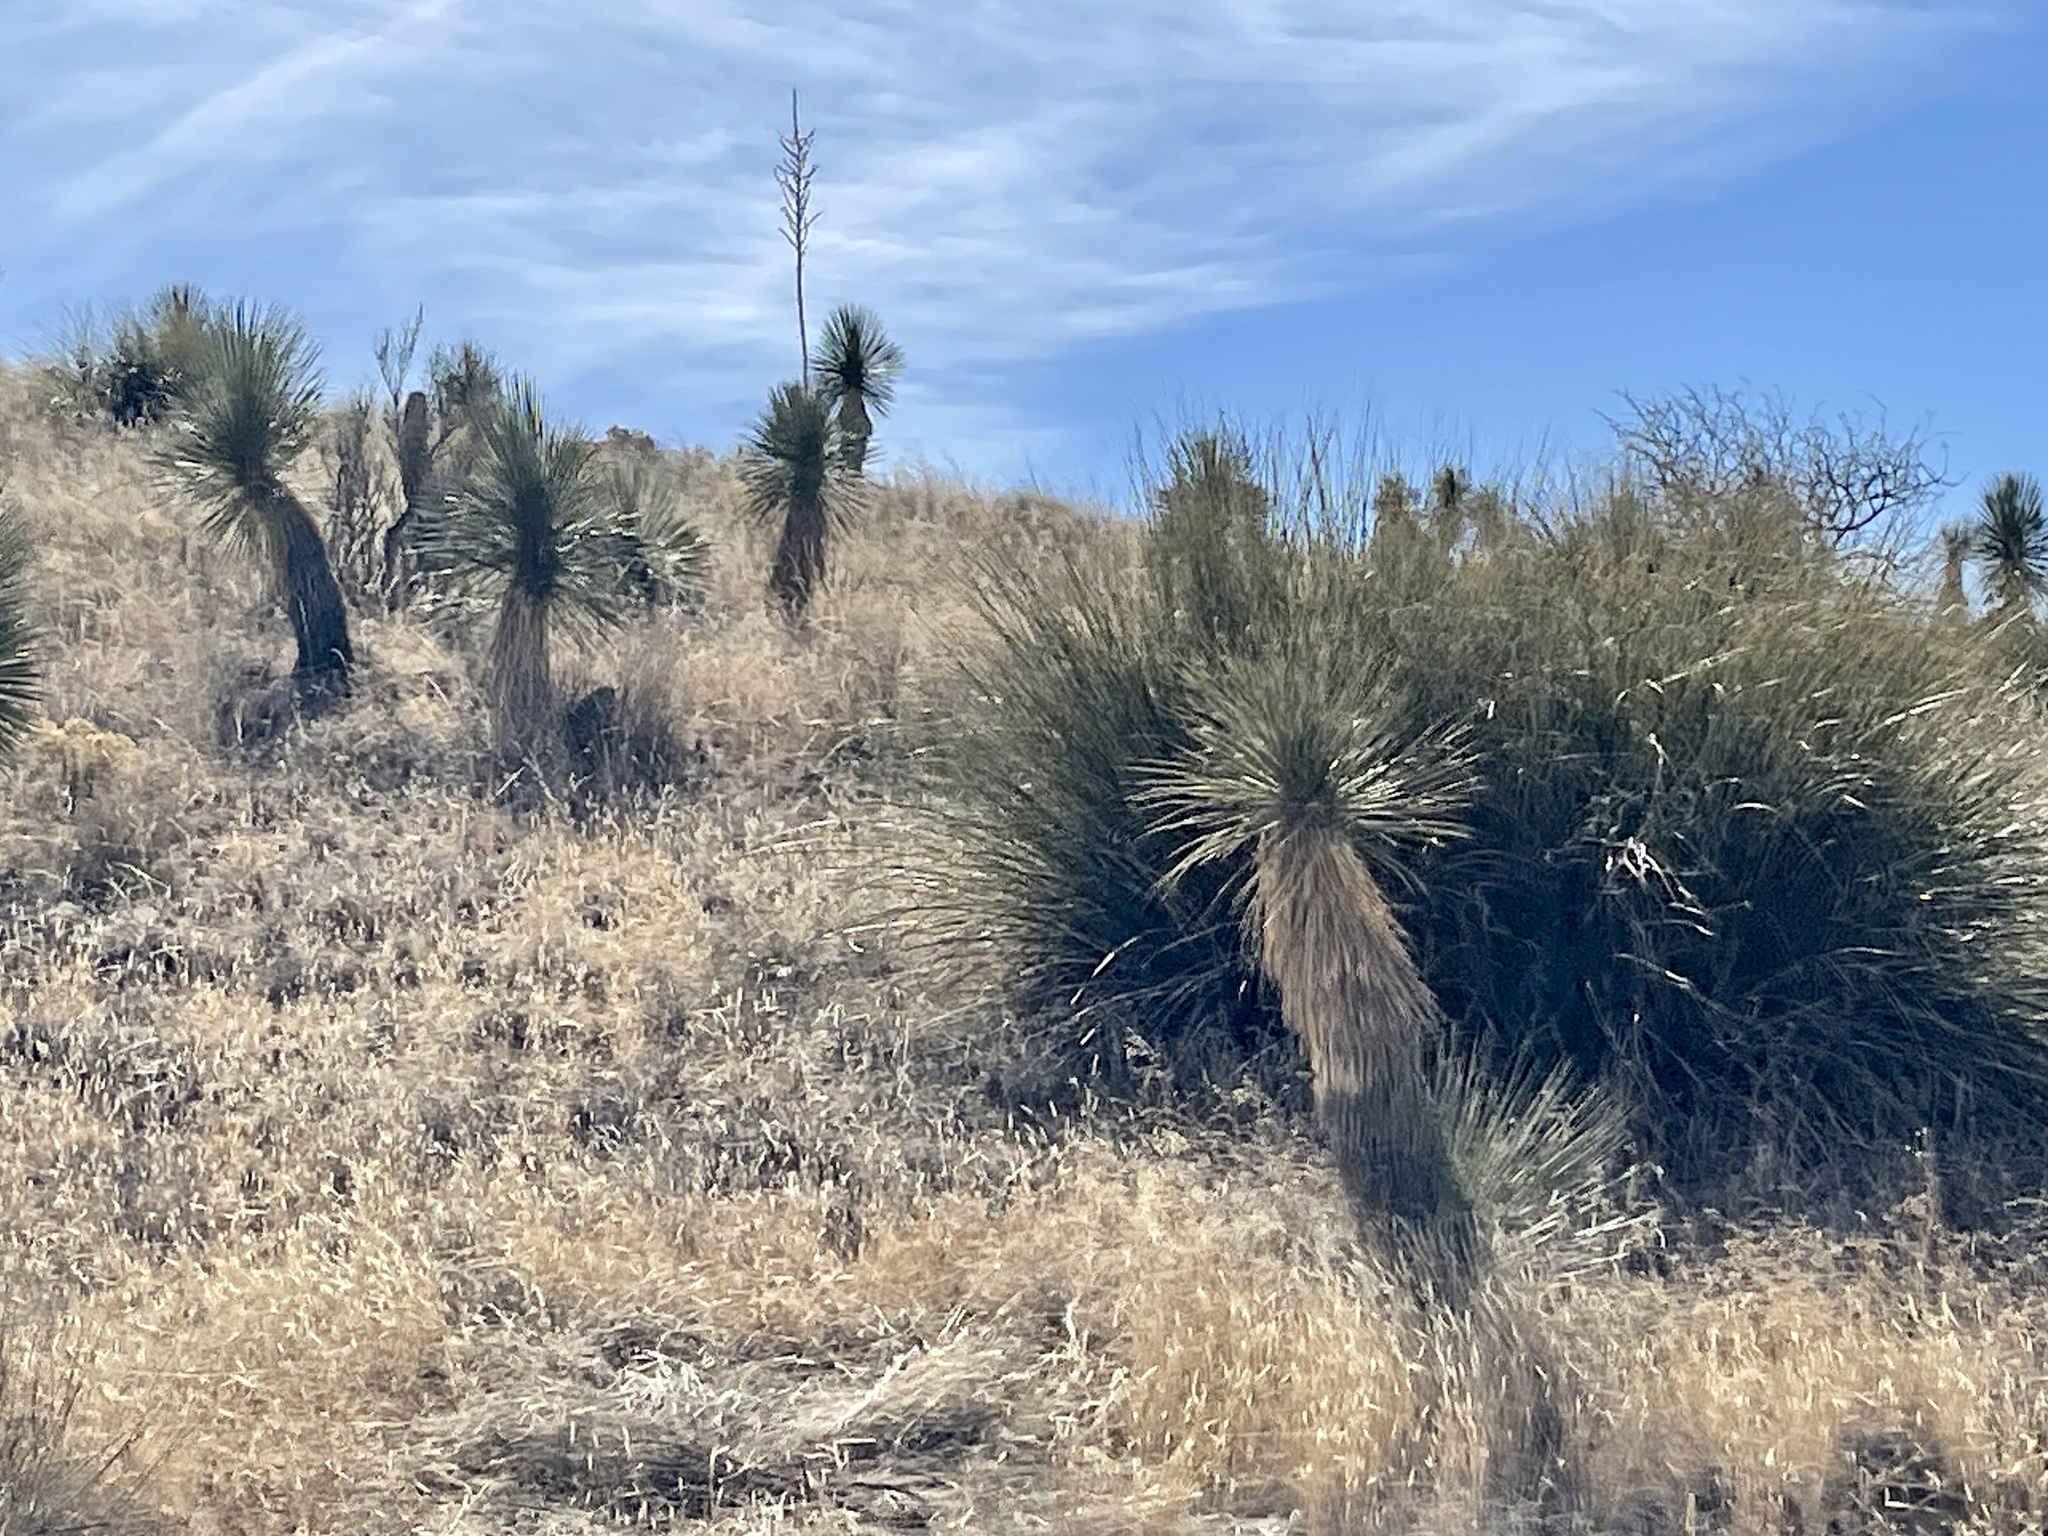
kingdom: Plantae
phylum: Tracheophyta
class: Liliopsida
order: Asparagales
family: Asparagaceae
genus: Yucca
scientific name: Yucca elata
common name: Palmella
